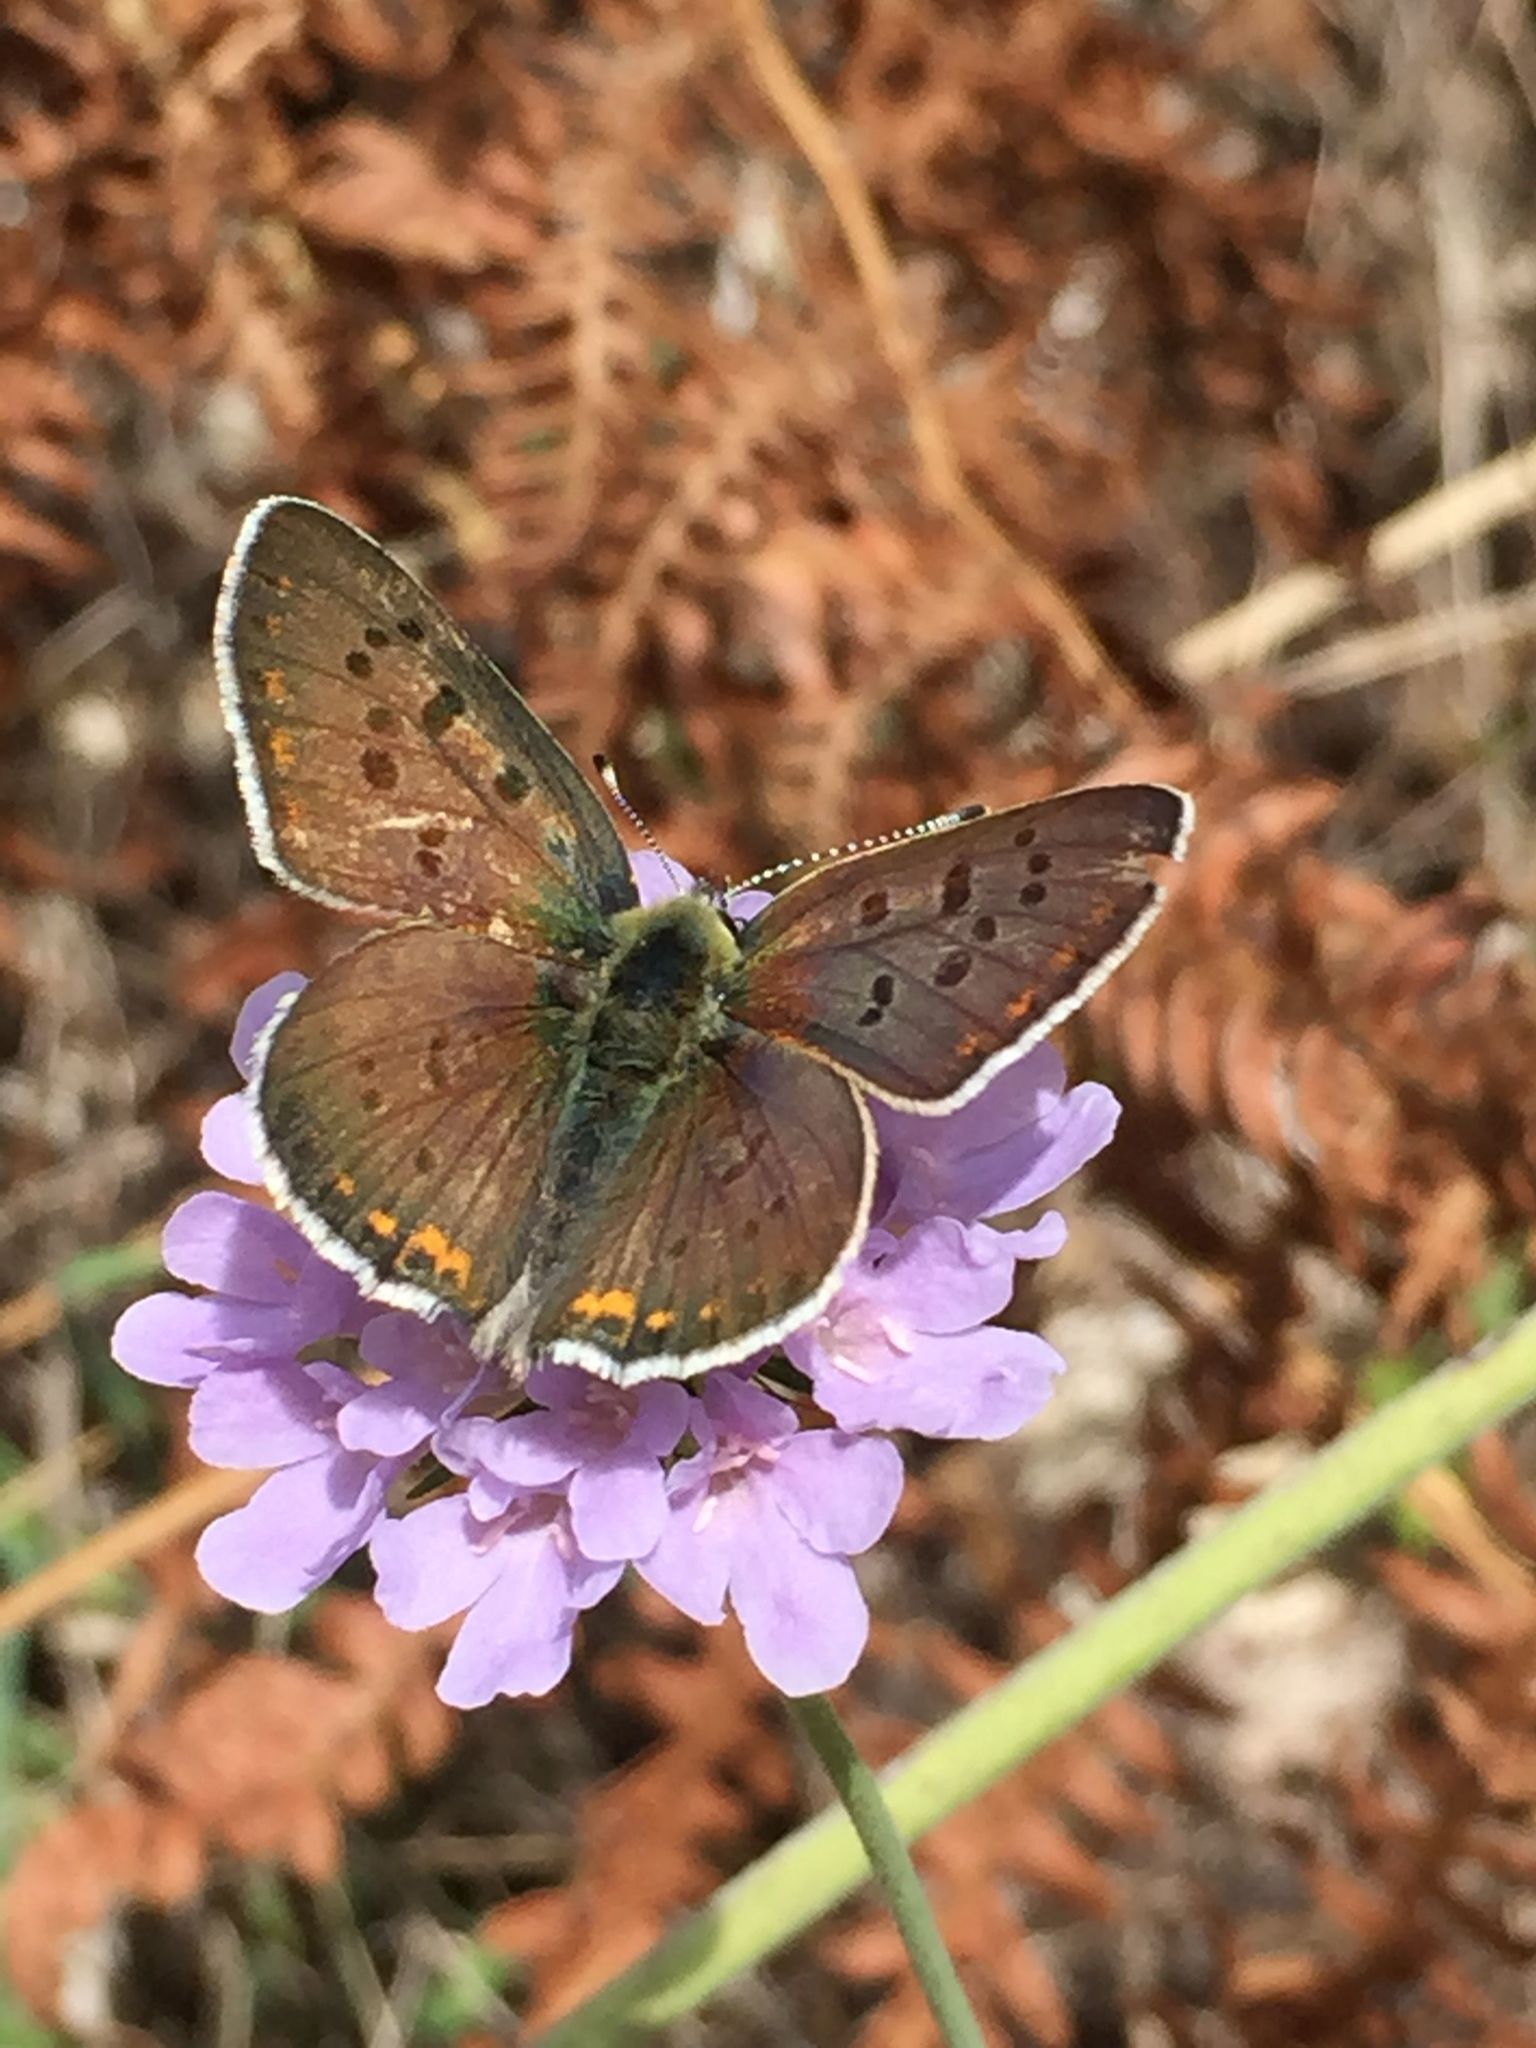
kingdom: Animalia
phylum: Arthropoda
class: Insecta
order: Lepidoptera
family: Lycaenidae
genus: Loweia
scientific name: Loweia tityrus
